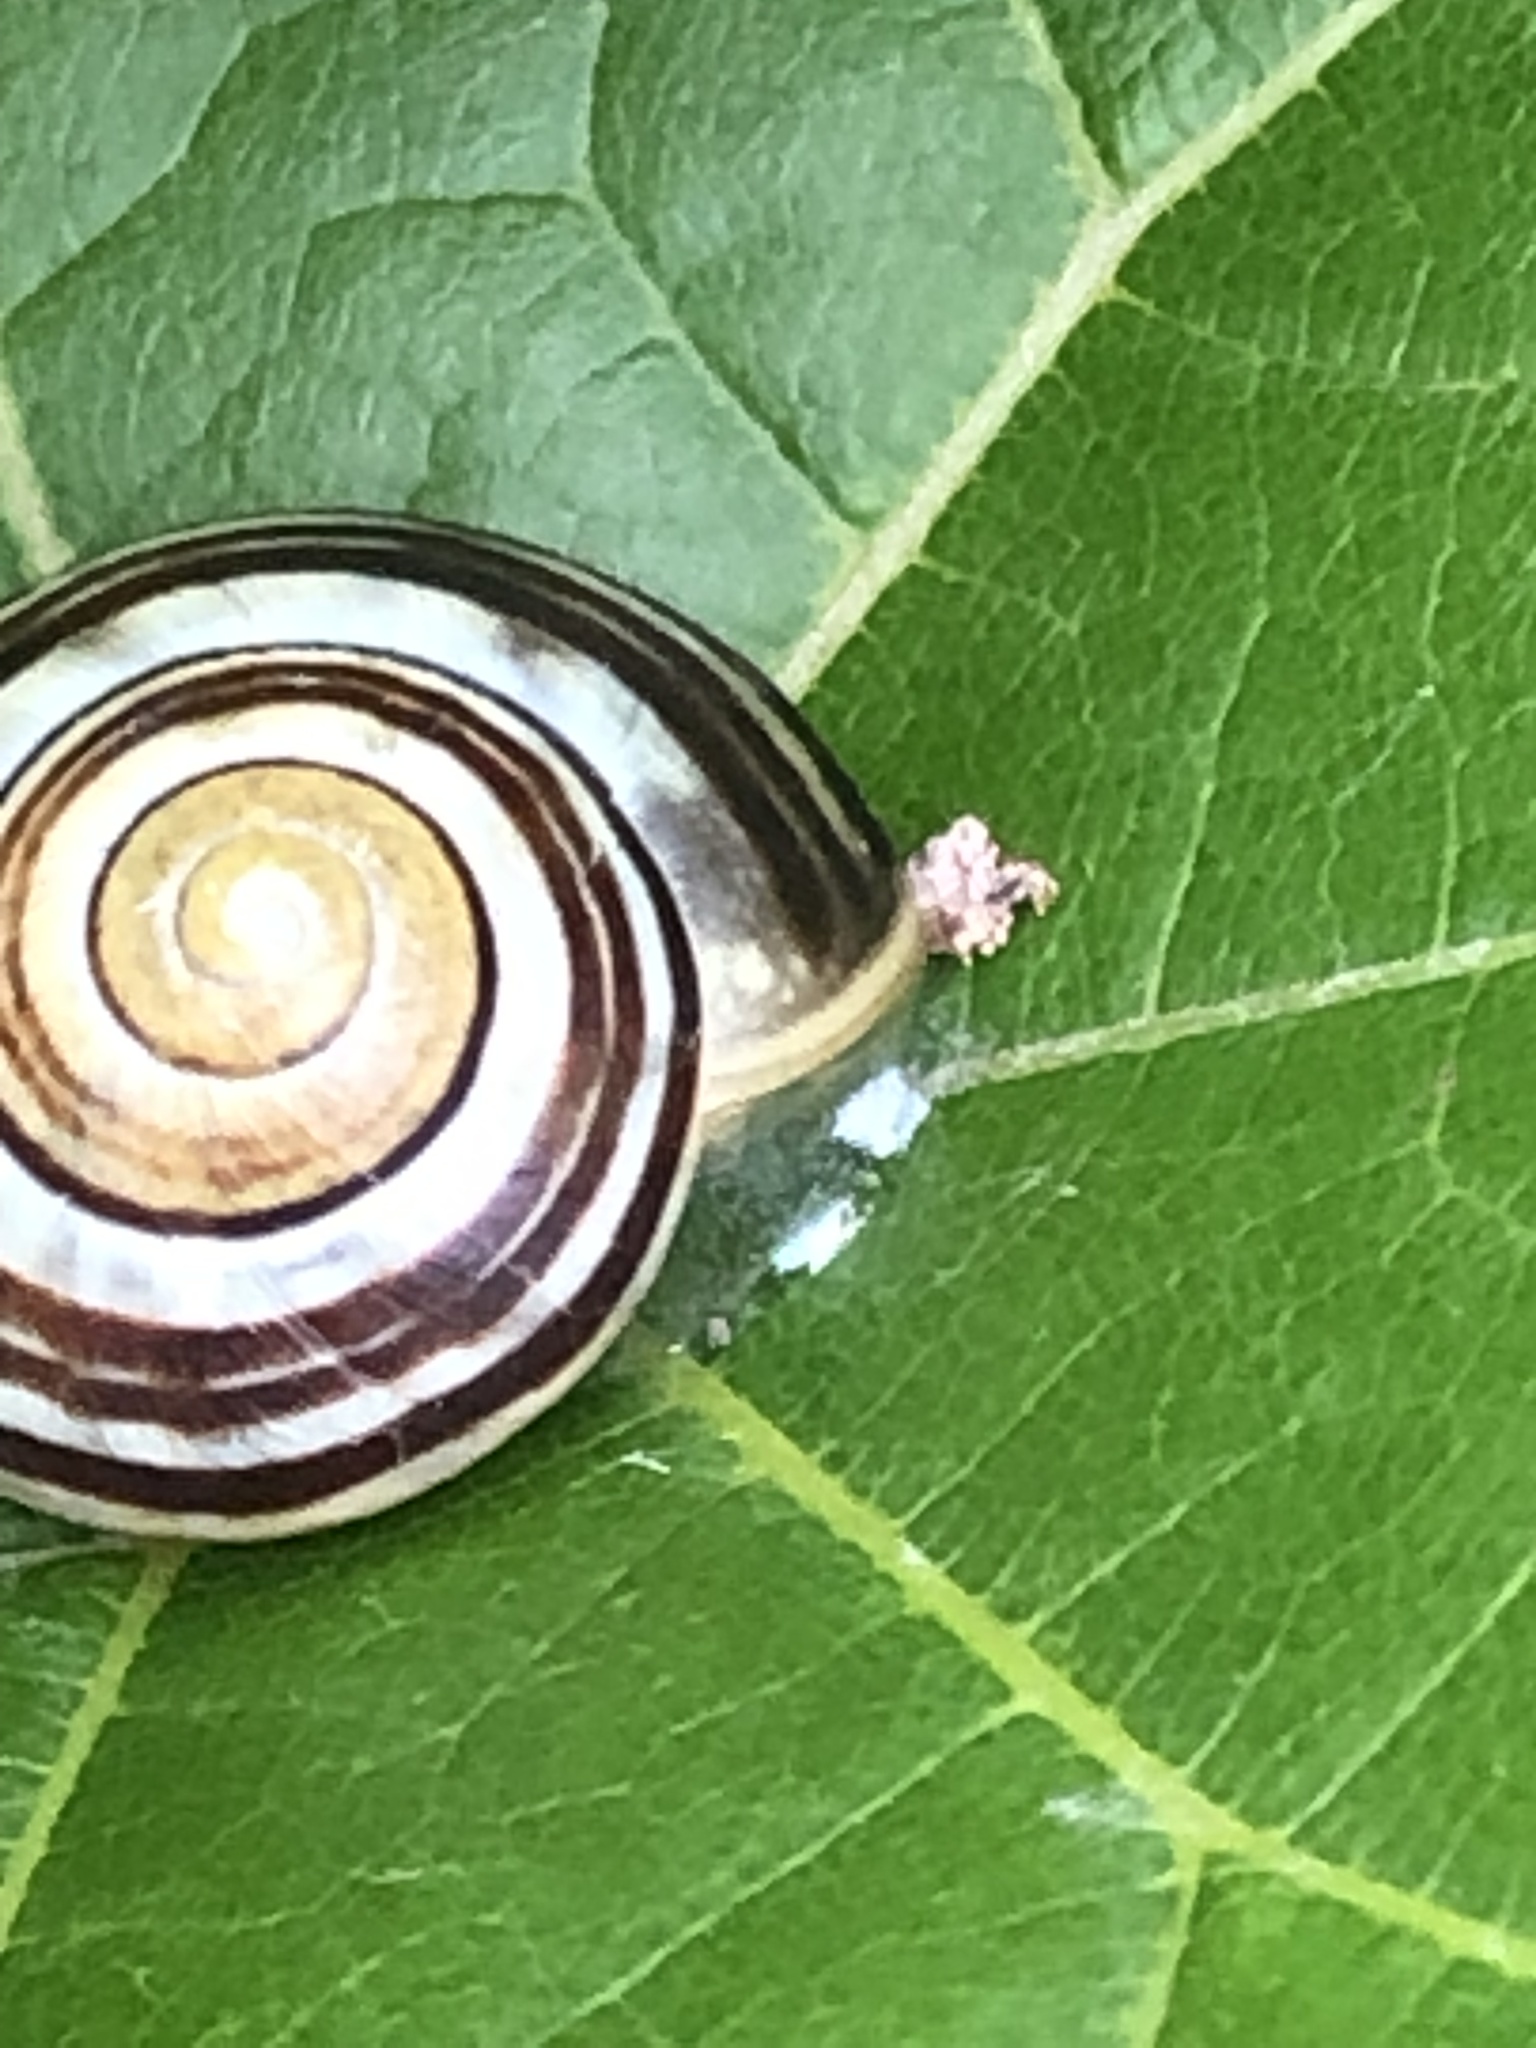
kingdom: Animalia
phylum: Mollusca
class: Gastropoda
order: Stylommatophora
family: Helicidae
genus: Cepaea
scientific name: Cepaea
